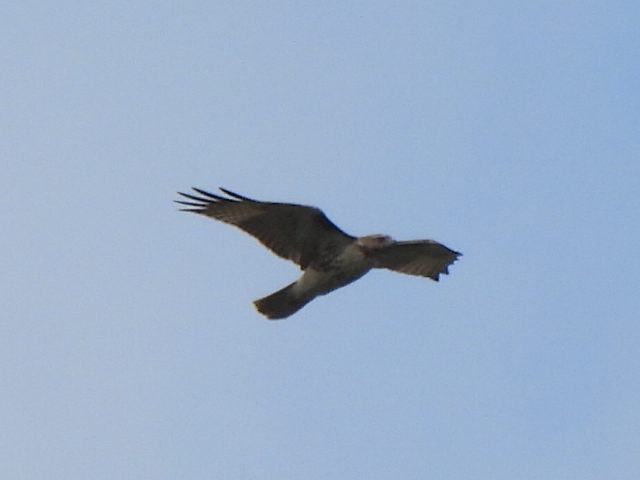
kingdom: Animalia
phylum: Chordata
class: Aves
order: Accipitriformes
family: Accipitridae
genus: Buteo
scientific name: Buteo jamaicensis
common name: Red-tailed hawk
